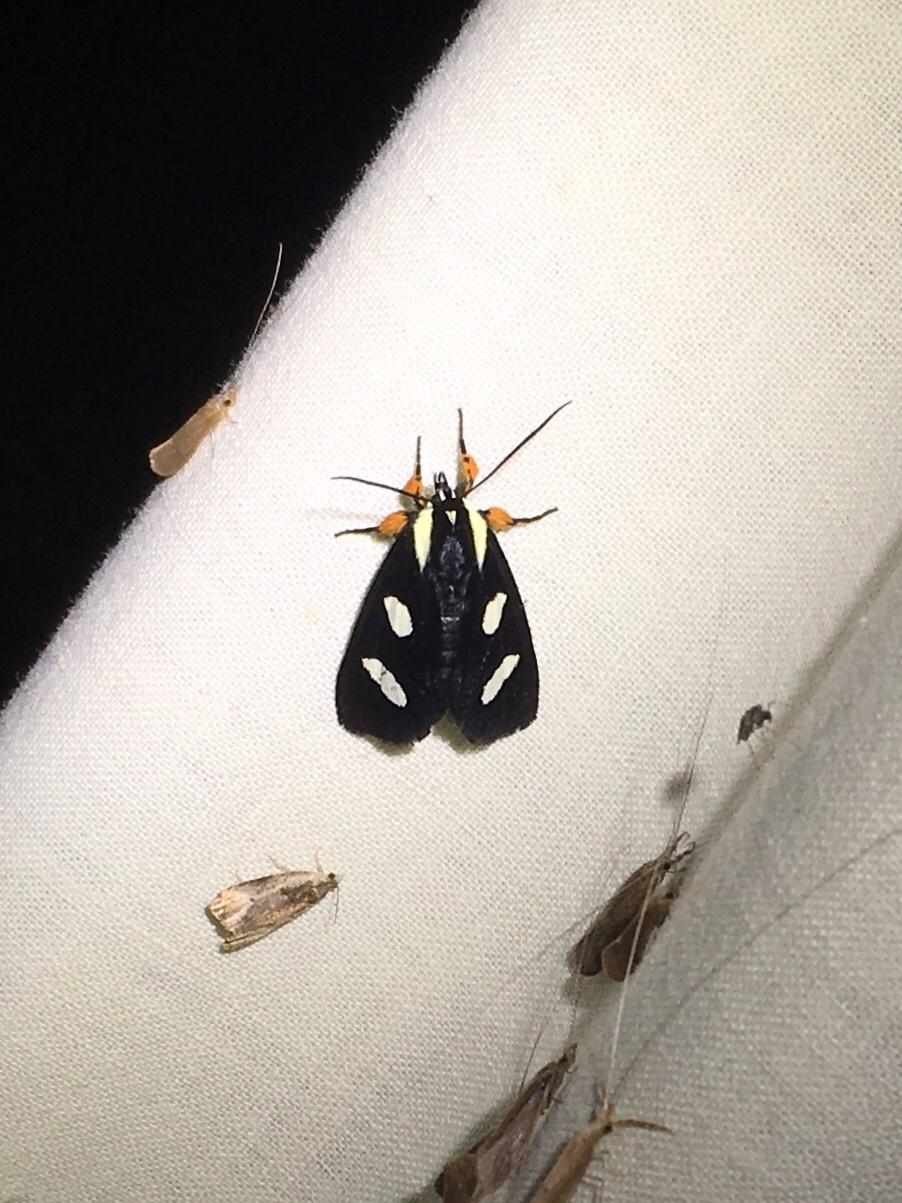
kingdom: Animalia
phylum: Arthropoda
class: Insecta
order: Lepidoptera
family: Noctuidae
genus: Alypia
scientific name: Alypia octomaculata
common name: Eight-spotted forester
